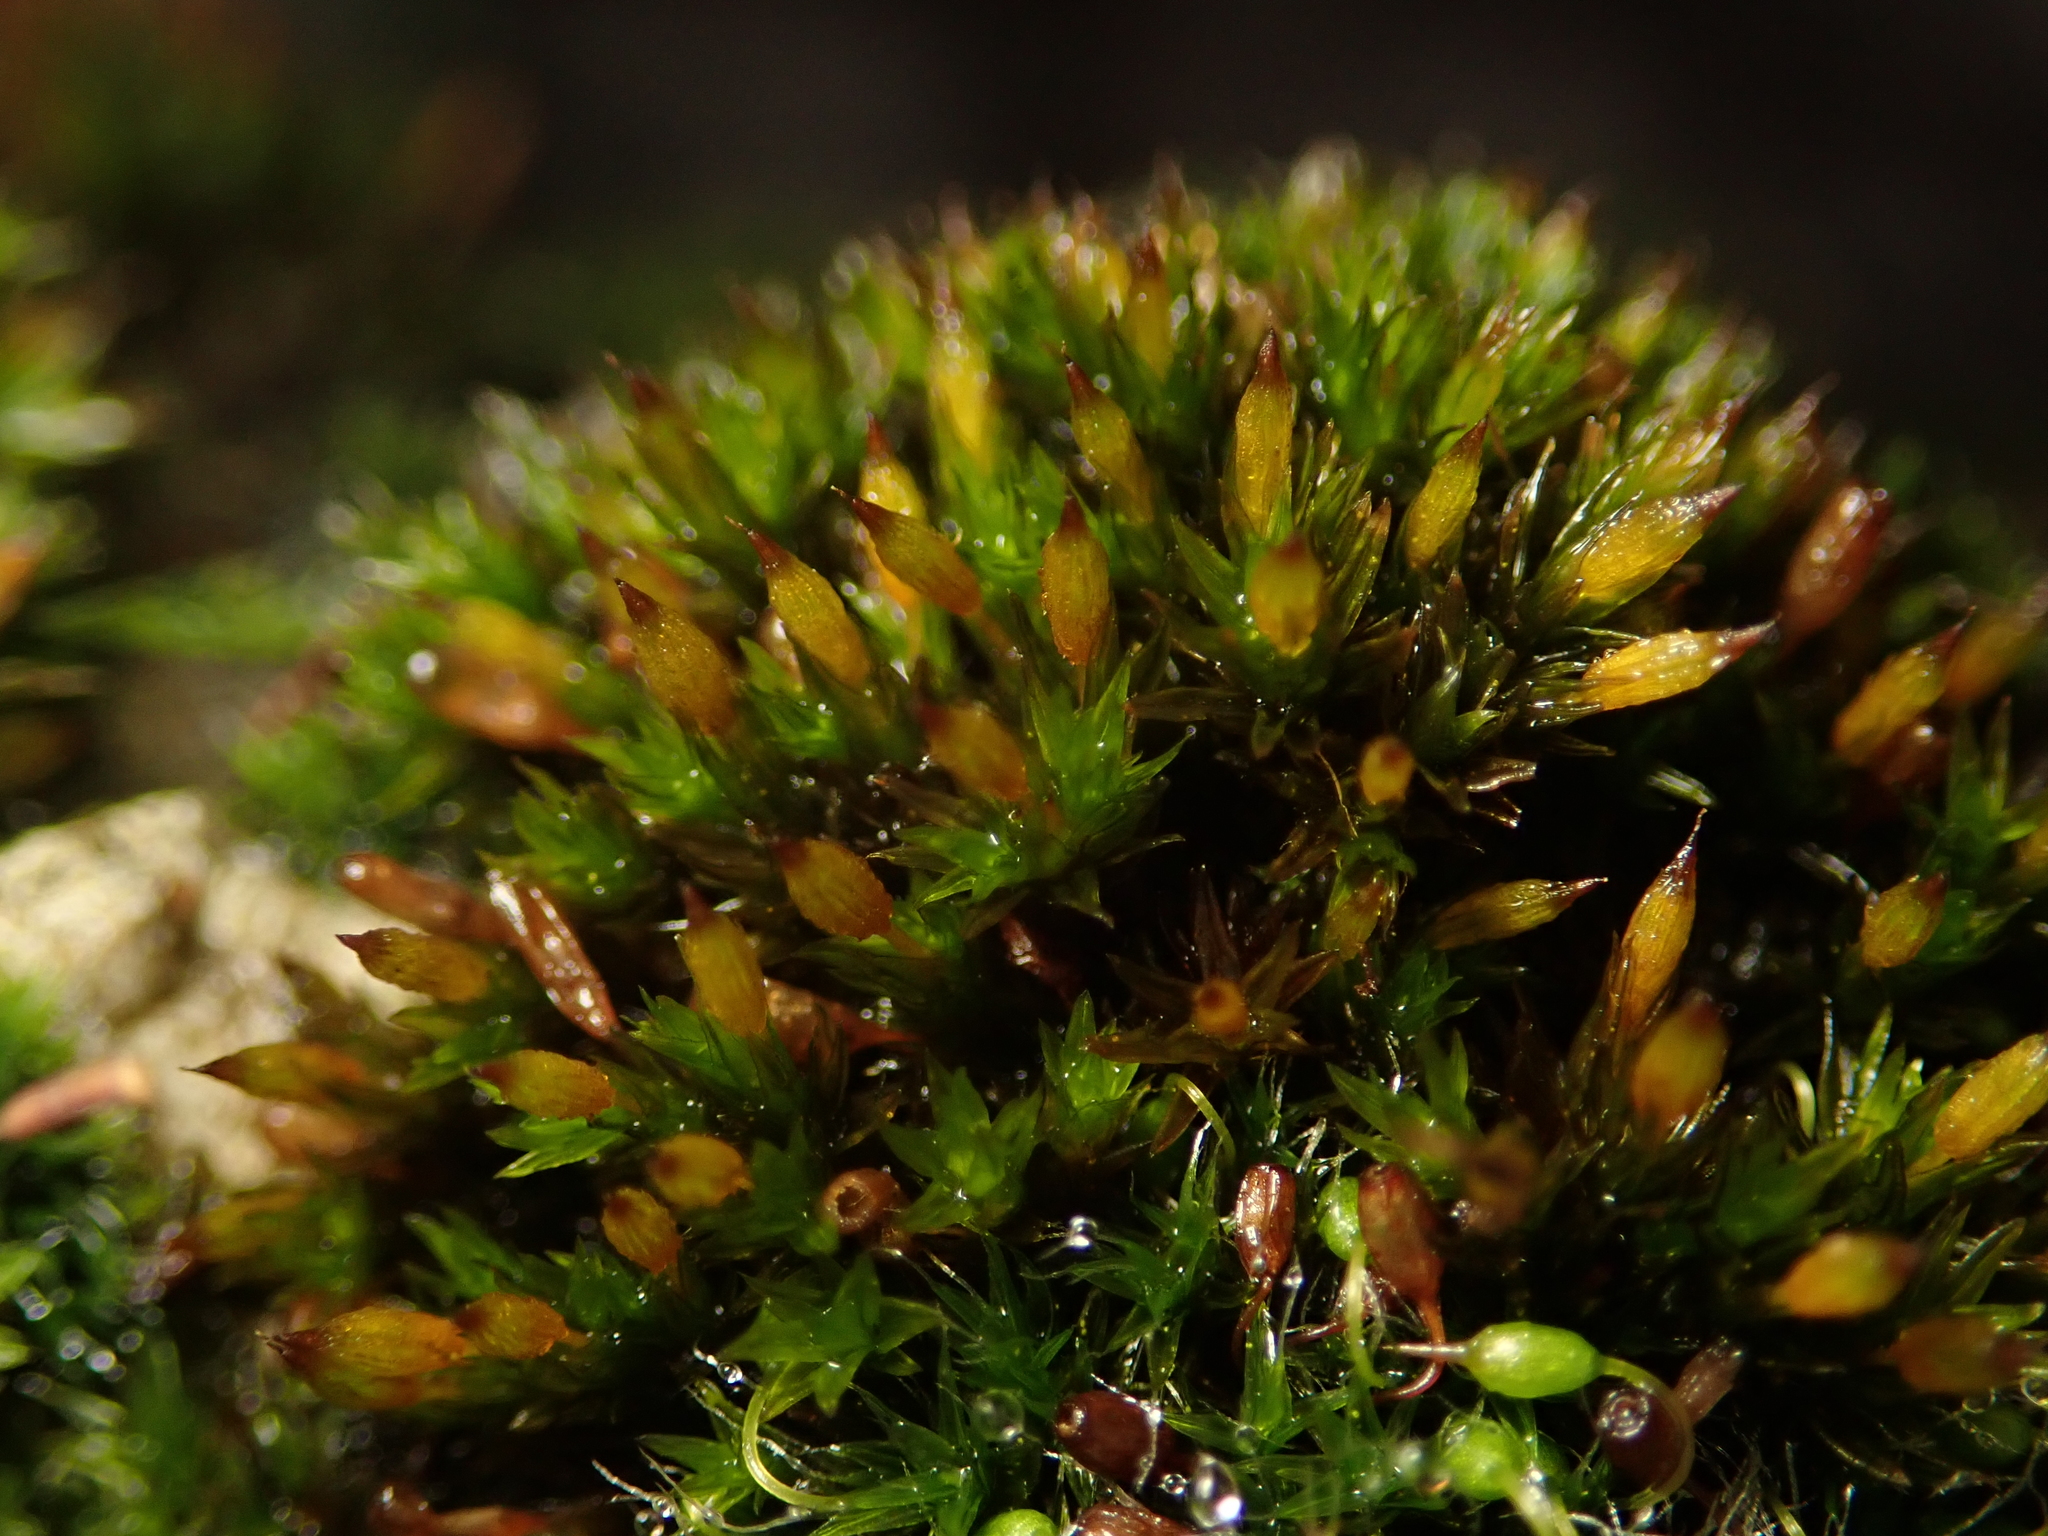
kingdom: Plantae
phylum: Bryophyta
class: Bryopsida
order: Orthotrichales
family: Orthotrichaceae
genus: Orthotrichum
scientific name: Orthotrichum anomalum
